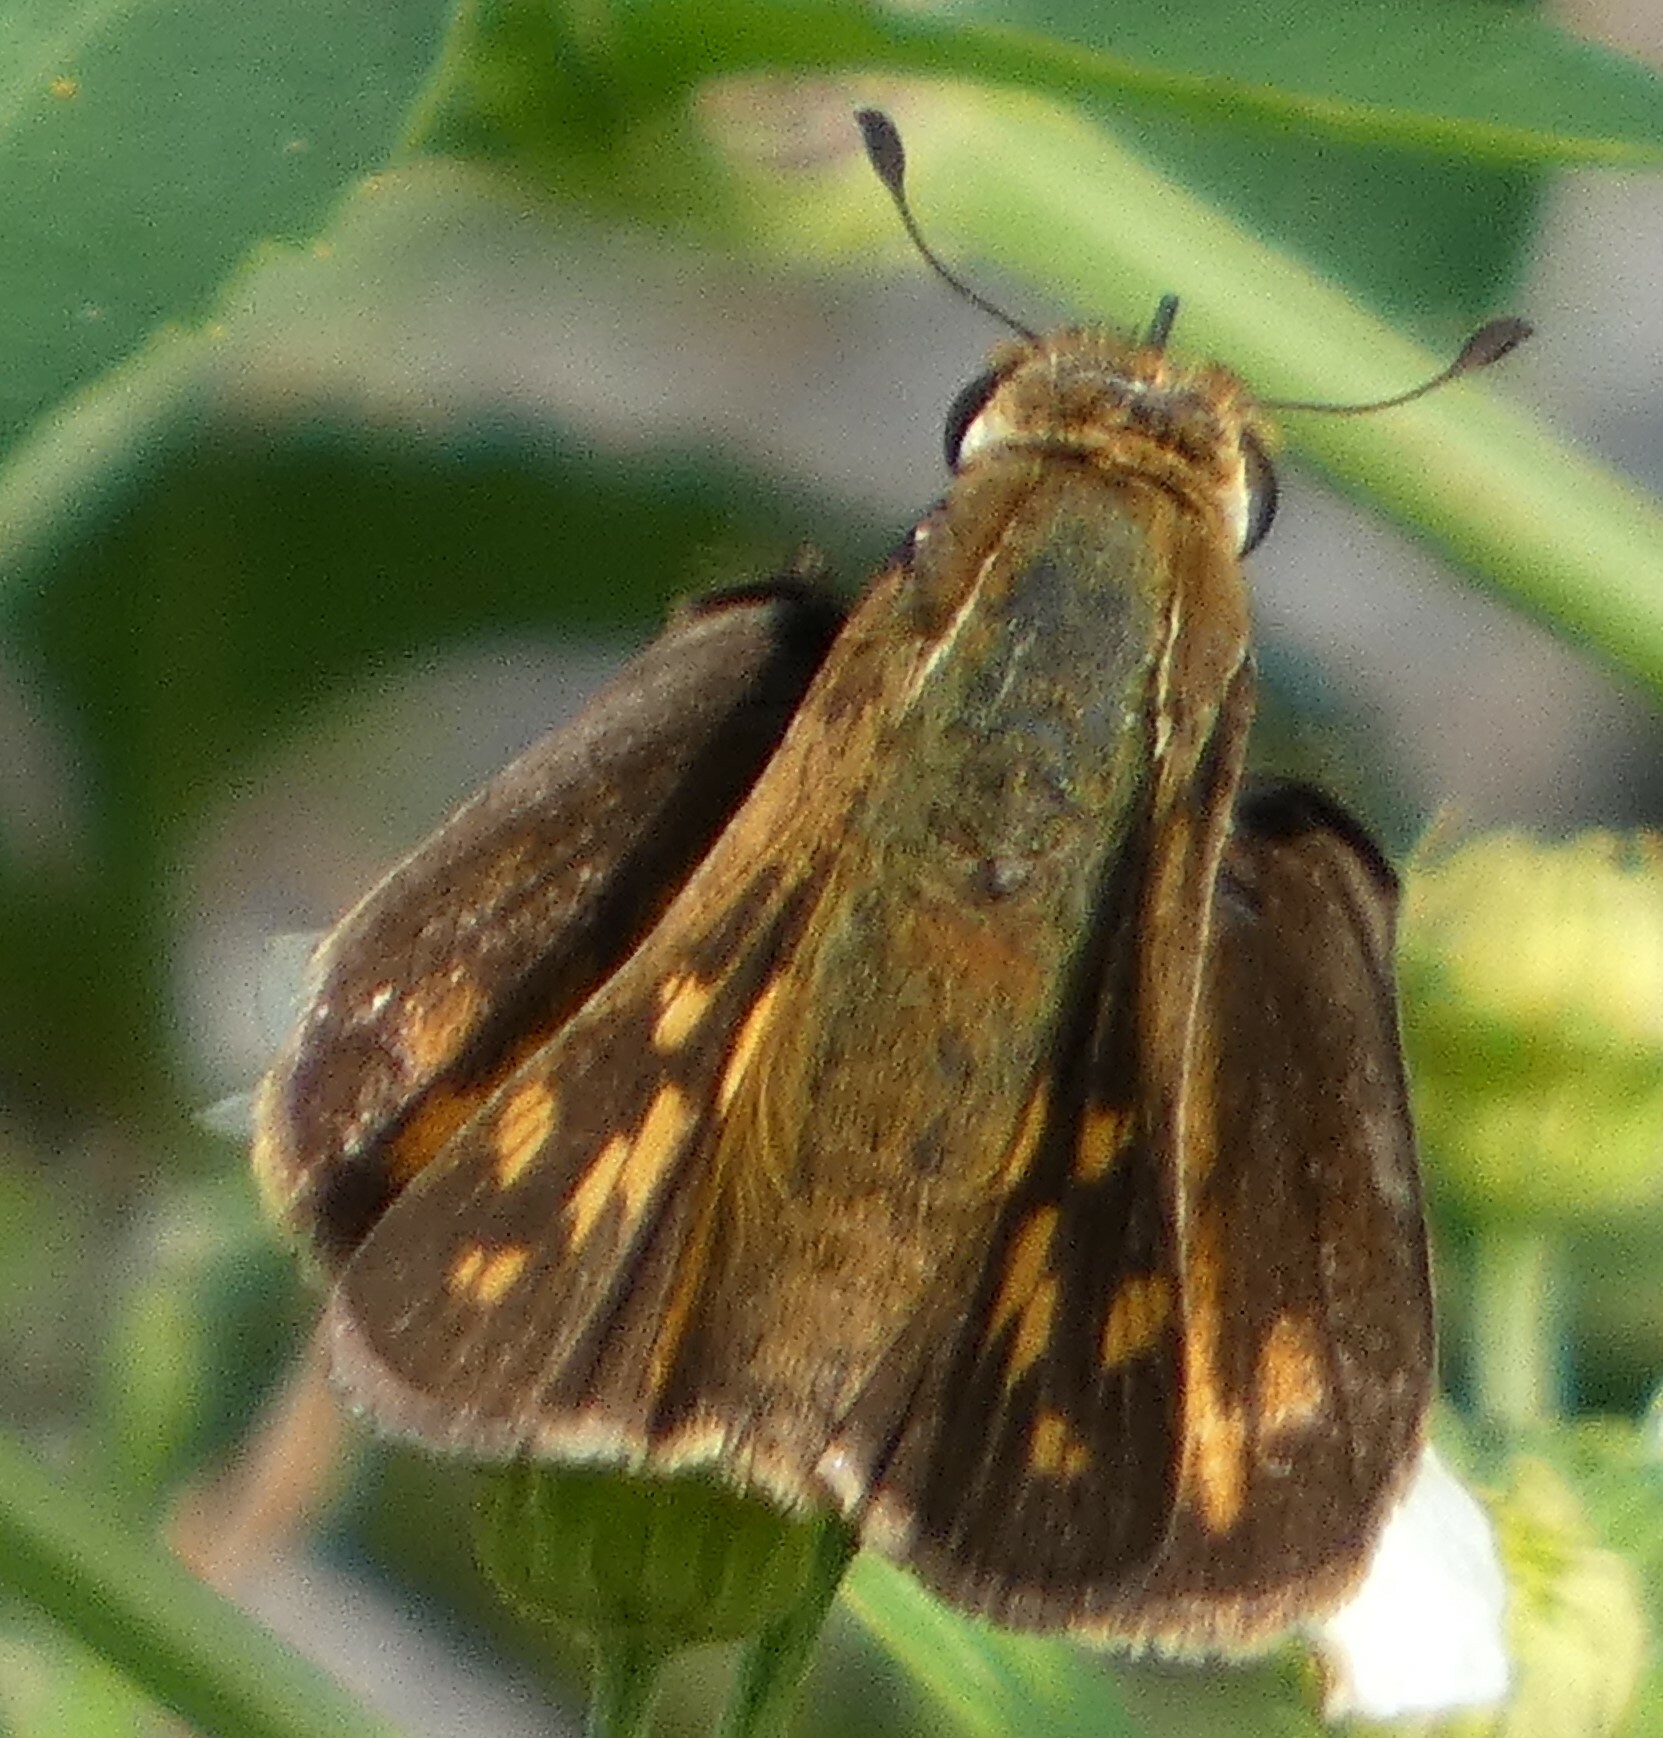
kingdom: Animalia
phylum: Arthropoda
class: Insecta
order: Lepidoptera
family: Hesperiidae
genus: Hylephila
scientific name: Hylephila phyleus
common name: Fiery skipper
